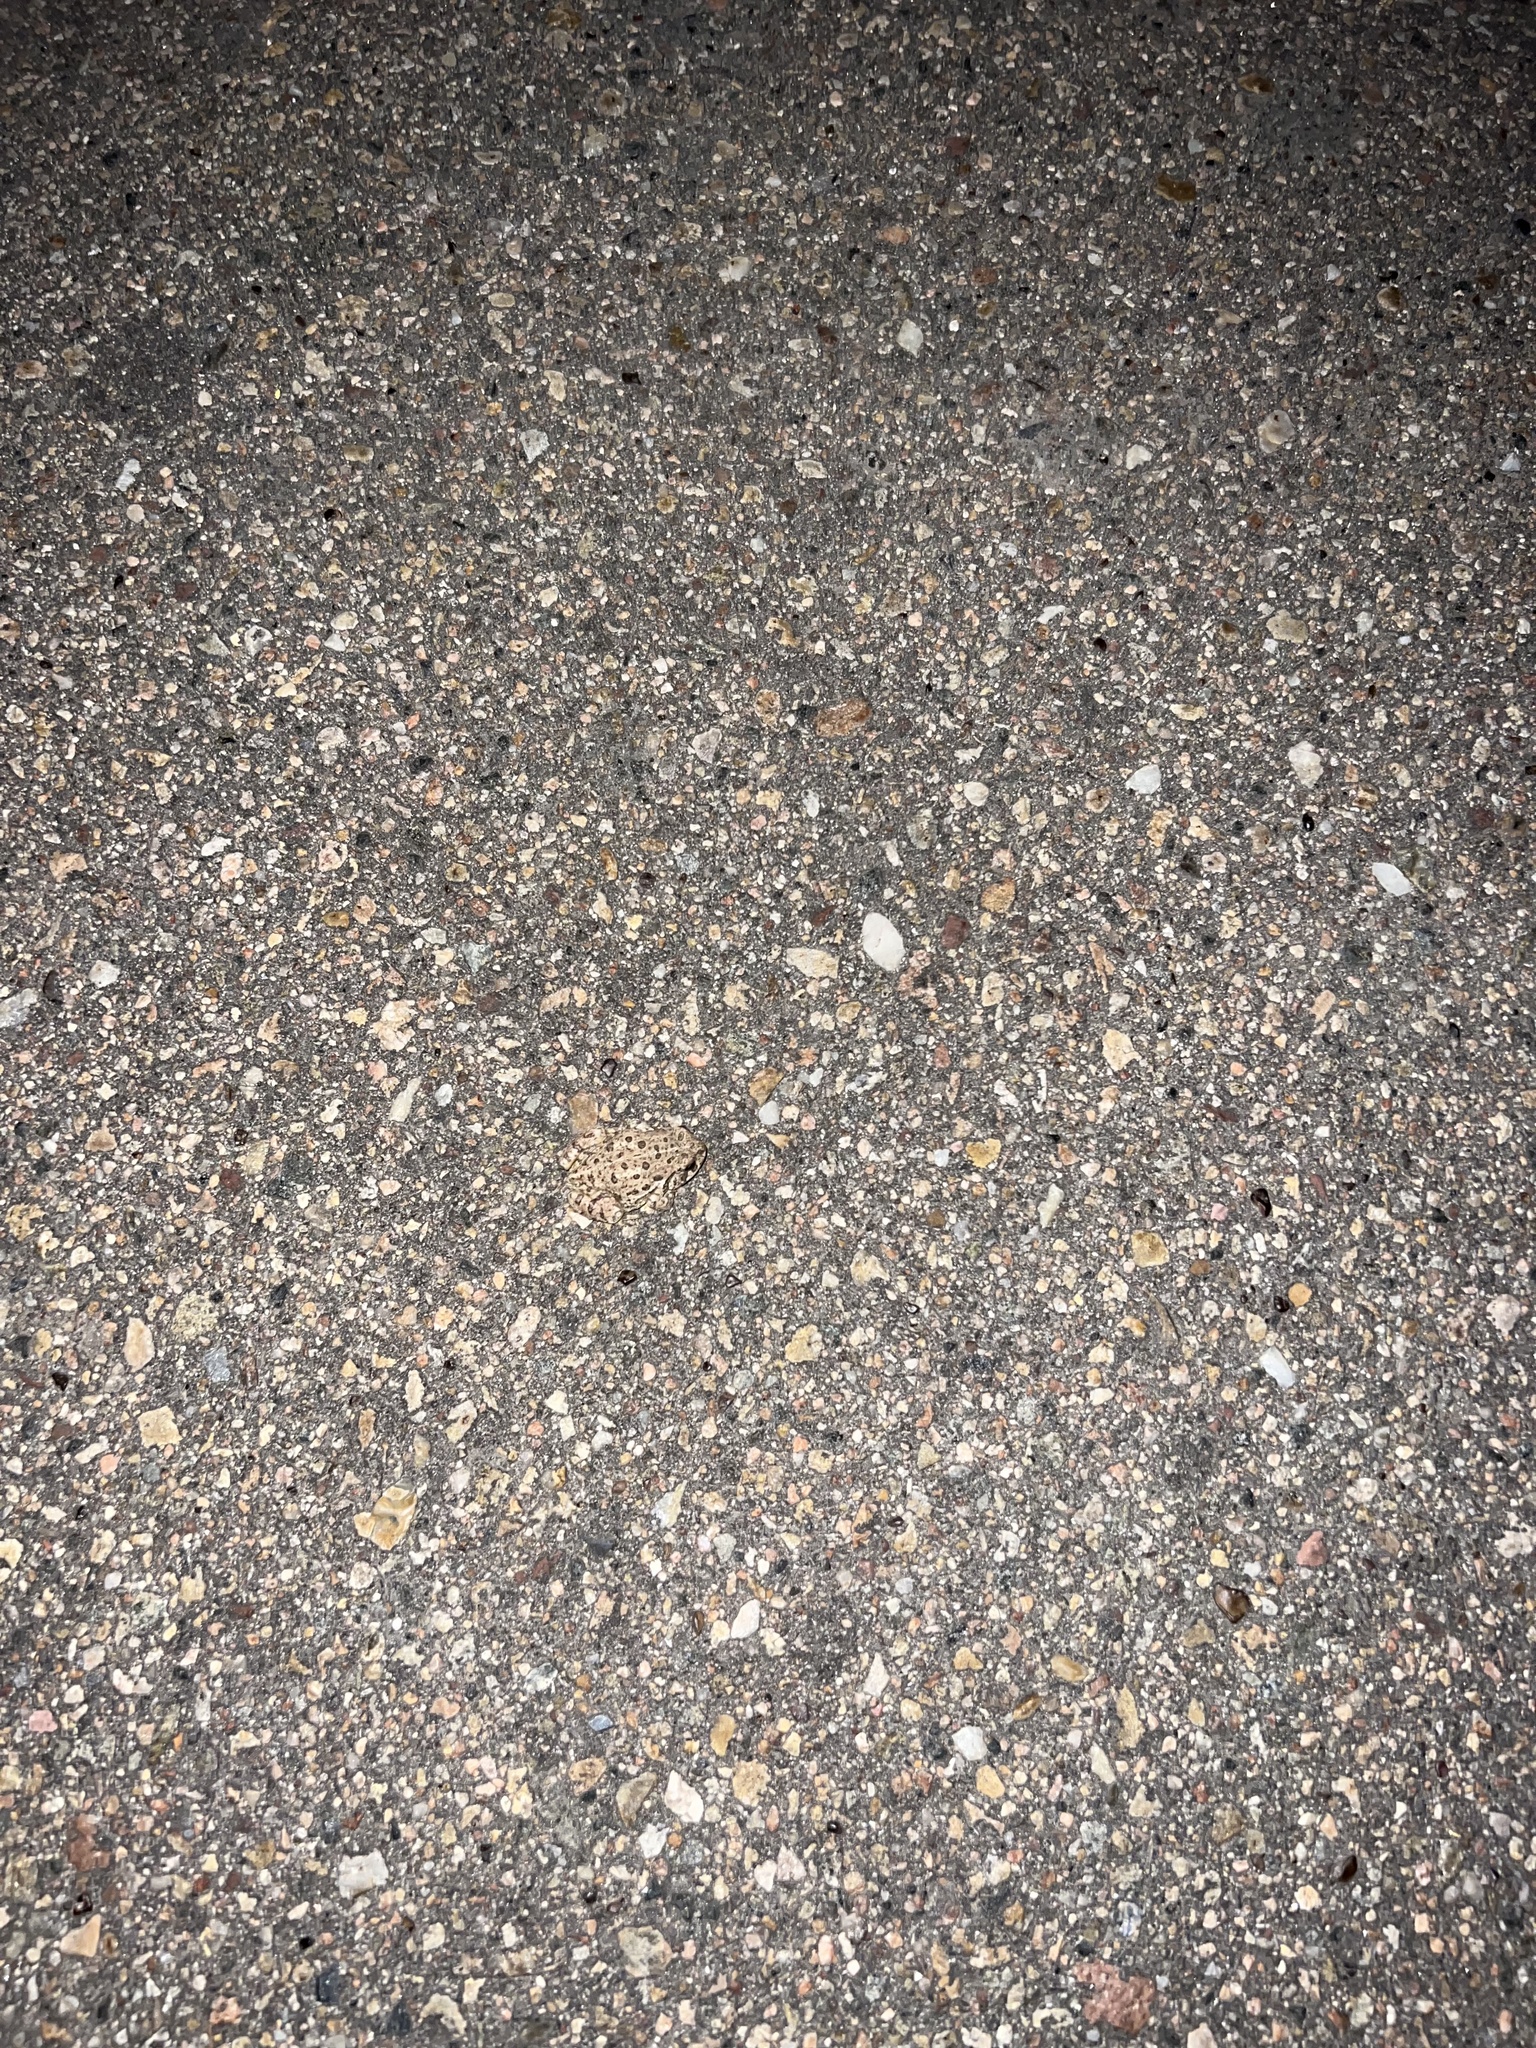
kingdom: Animalia
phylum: Chordata
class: Amphibia
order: Anura
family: Bufonidae
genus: Anaxyrus
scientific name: Anaxyrus woodhousii
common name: Woodhouse's toad
